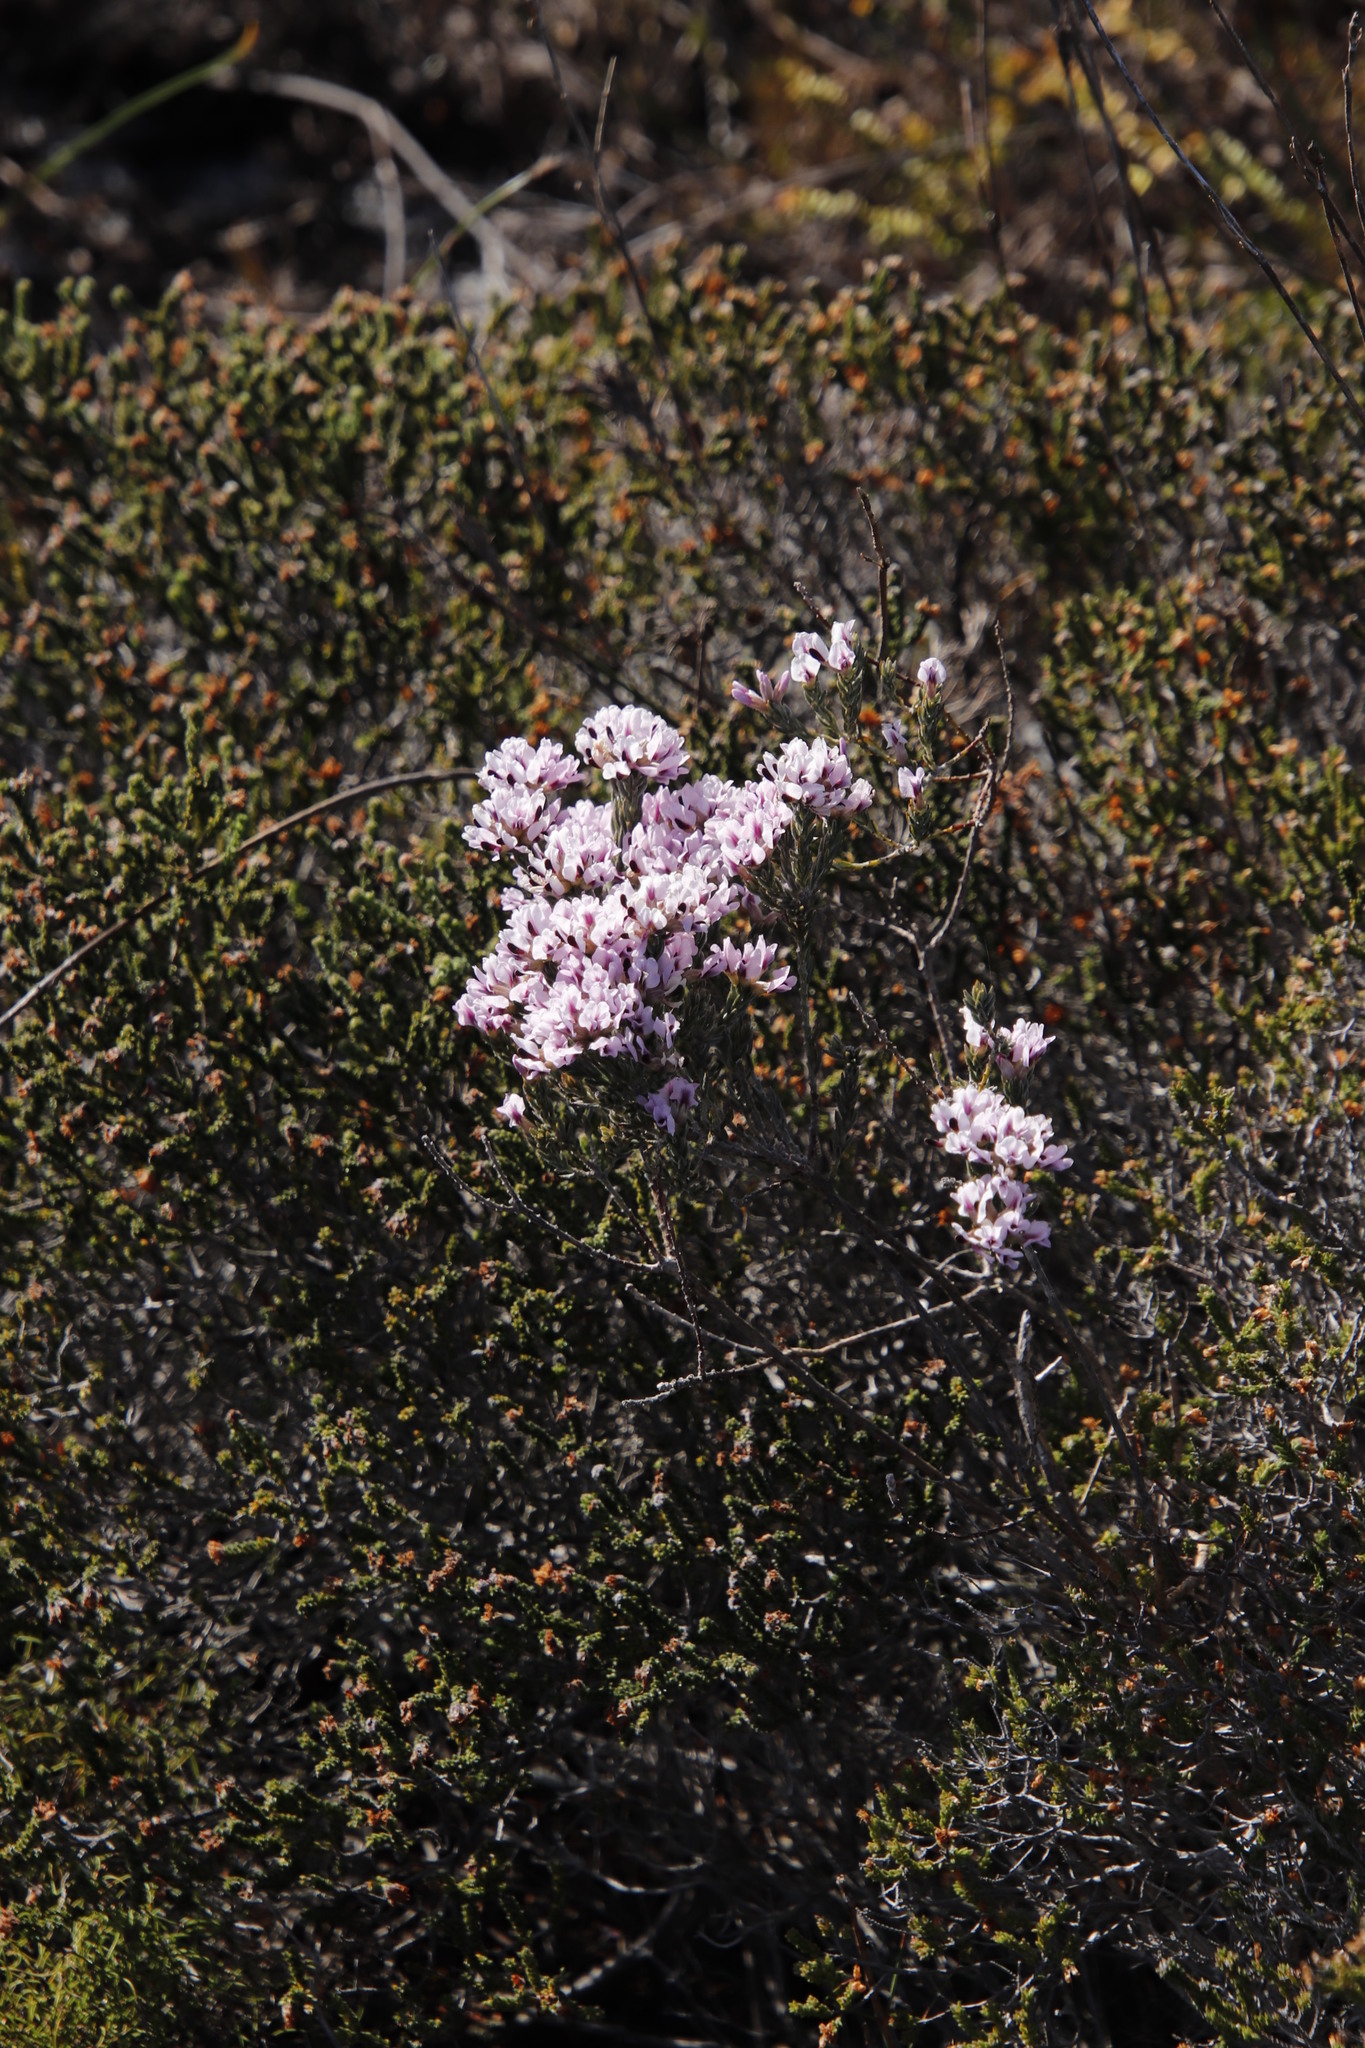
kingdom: Plantae
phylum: Tracheophyta
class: Magnoliopsida
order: Fabales
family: Fabaceae
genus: Amphithalea
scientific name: Amphithalea ericifolia
